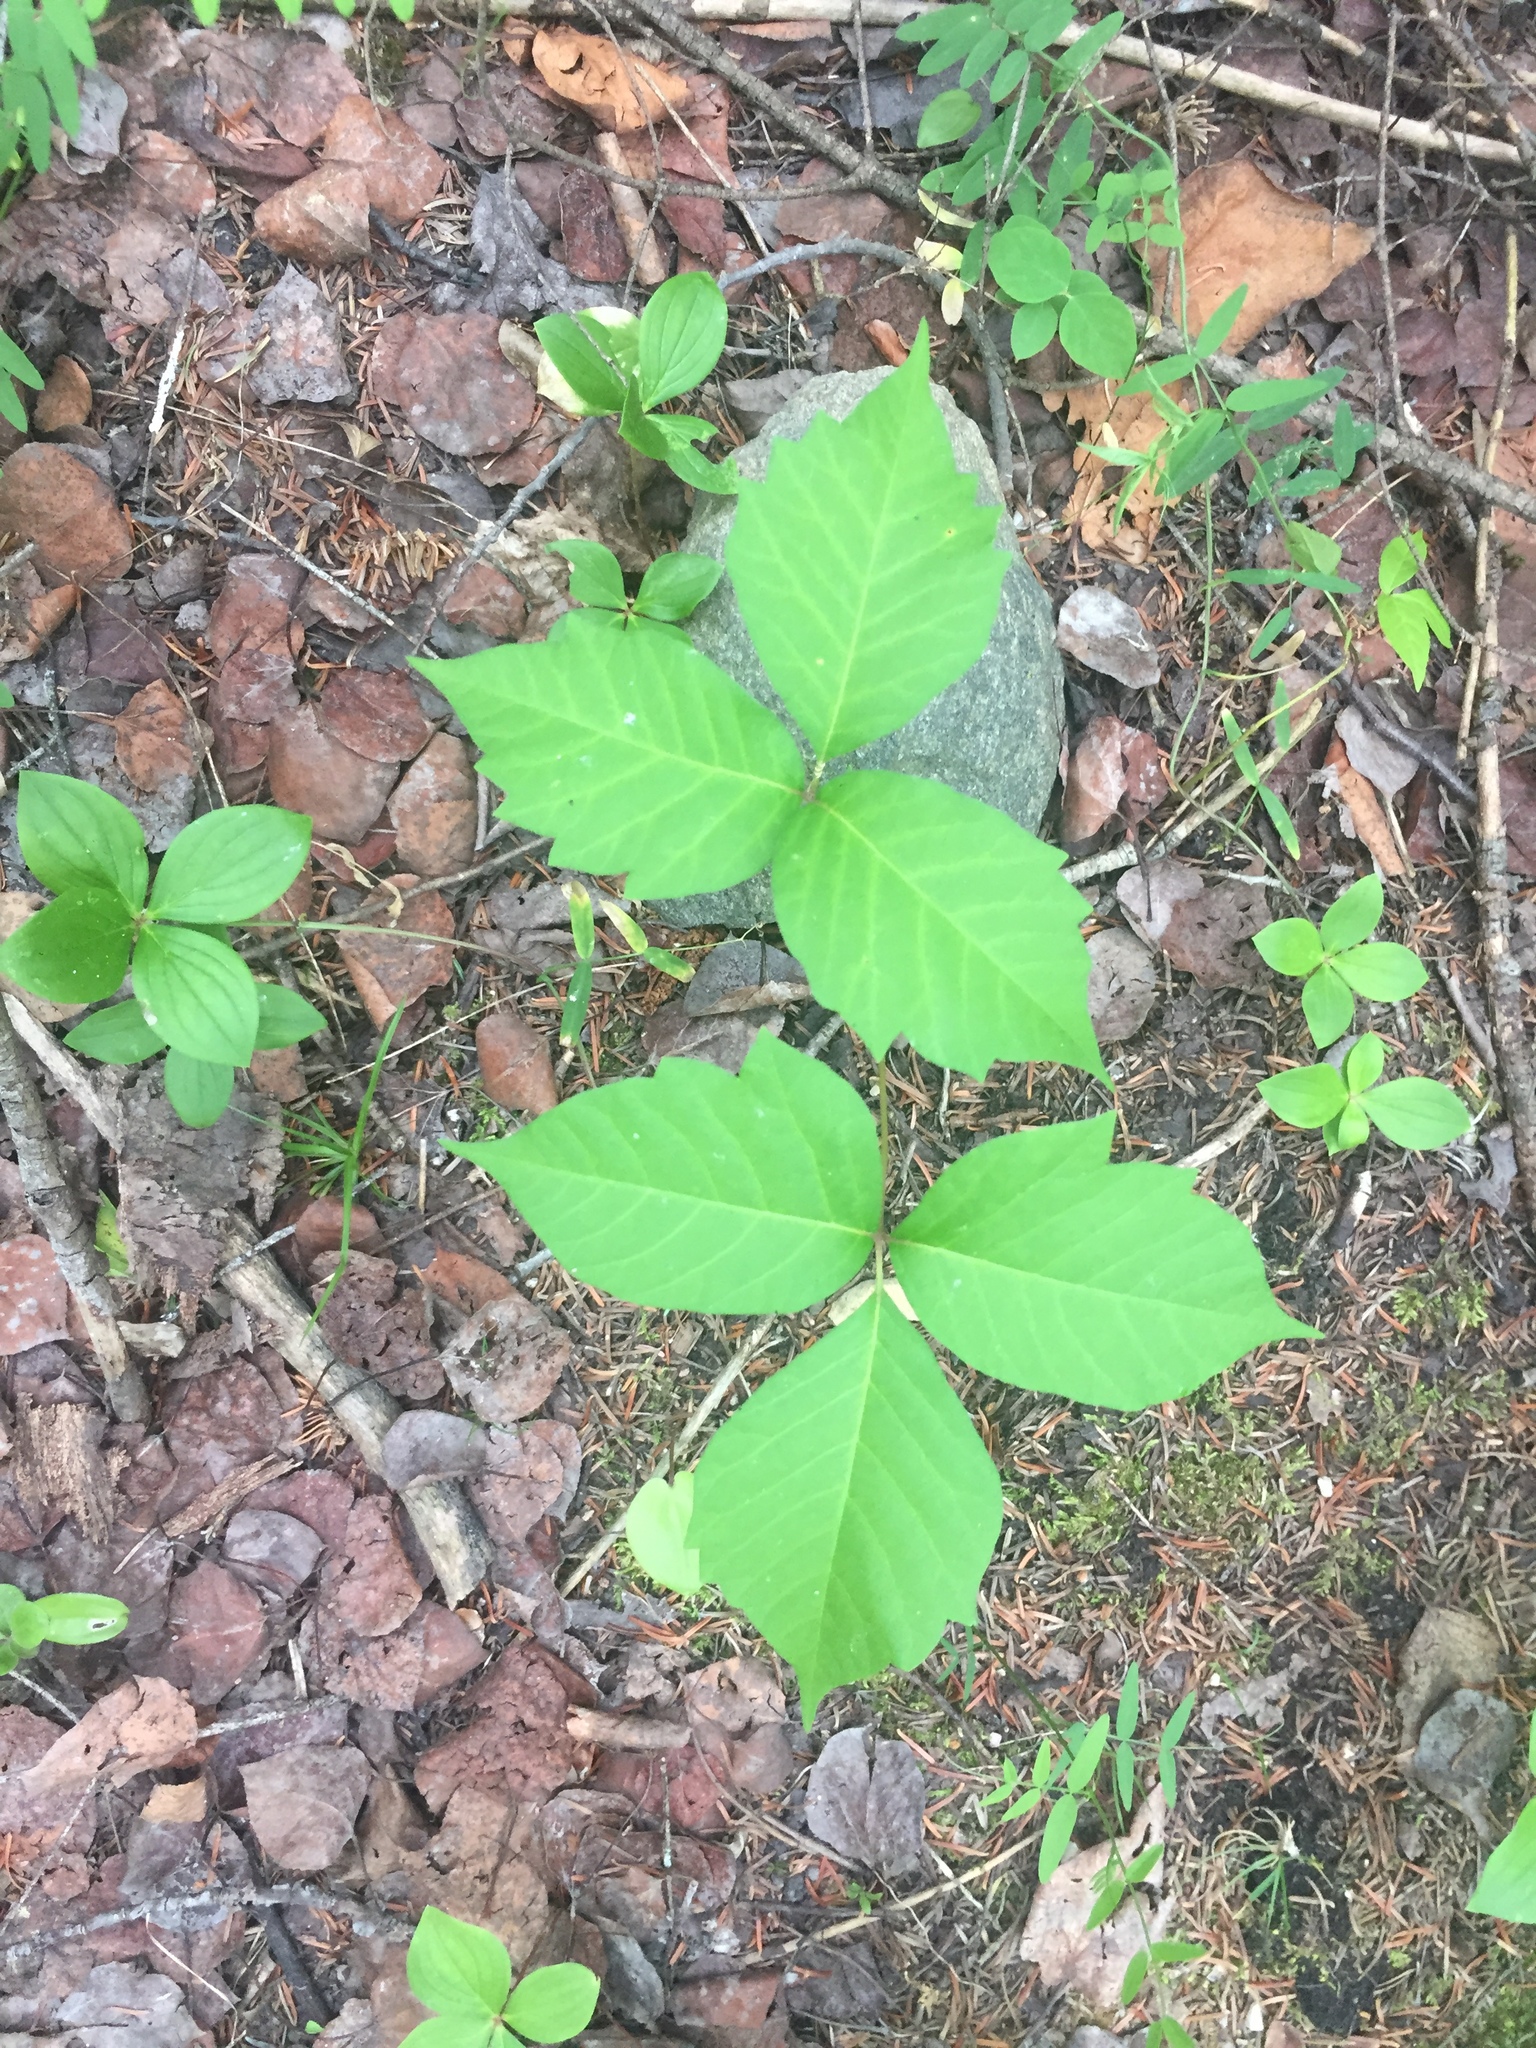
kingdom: Plantae
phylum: Tracheophyta
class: Magnoliopsida
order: Sapindales
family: Anacardiaceae
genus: Toxicodendron
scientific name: Toxicodendron rydbergii
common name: Rydberg's poison-ivy
